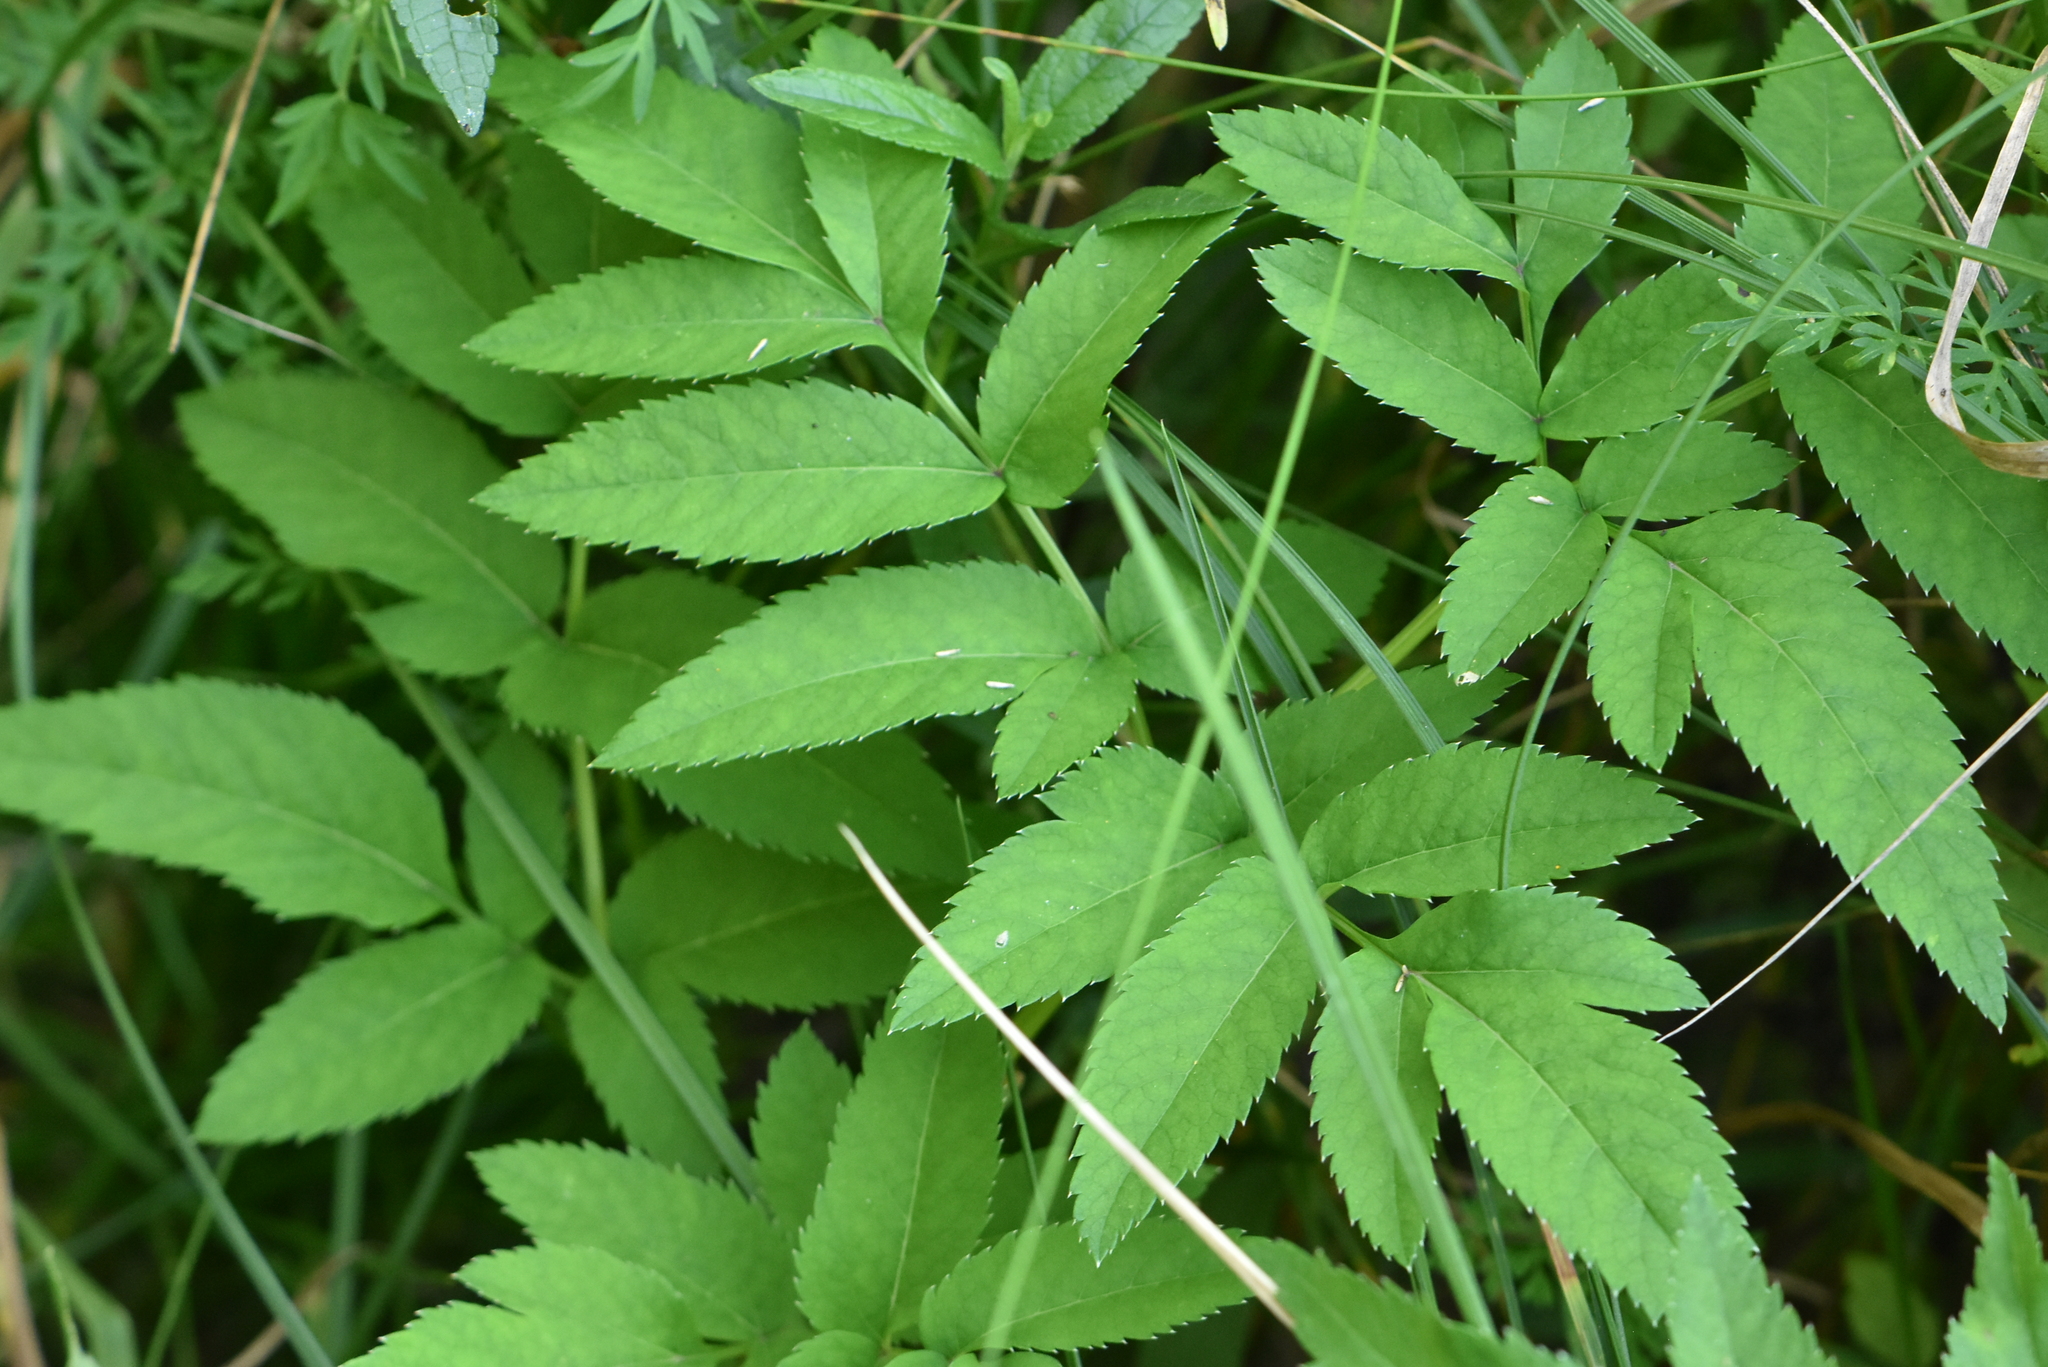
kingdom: Plantae
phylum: Tracheophyta
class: Magnoliopsida
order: Apiales
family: Apiaceae
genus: Angelica
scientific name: Angelica sylvestris
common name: Wild angelica
